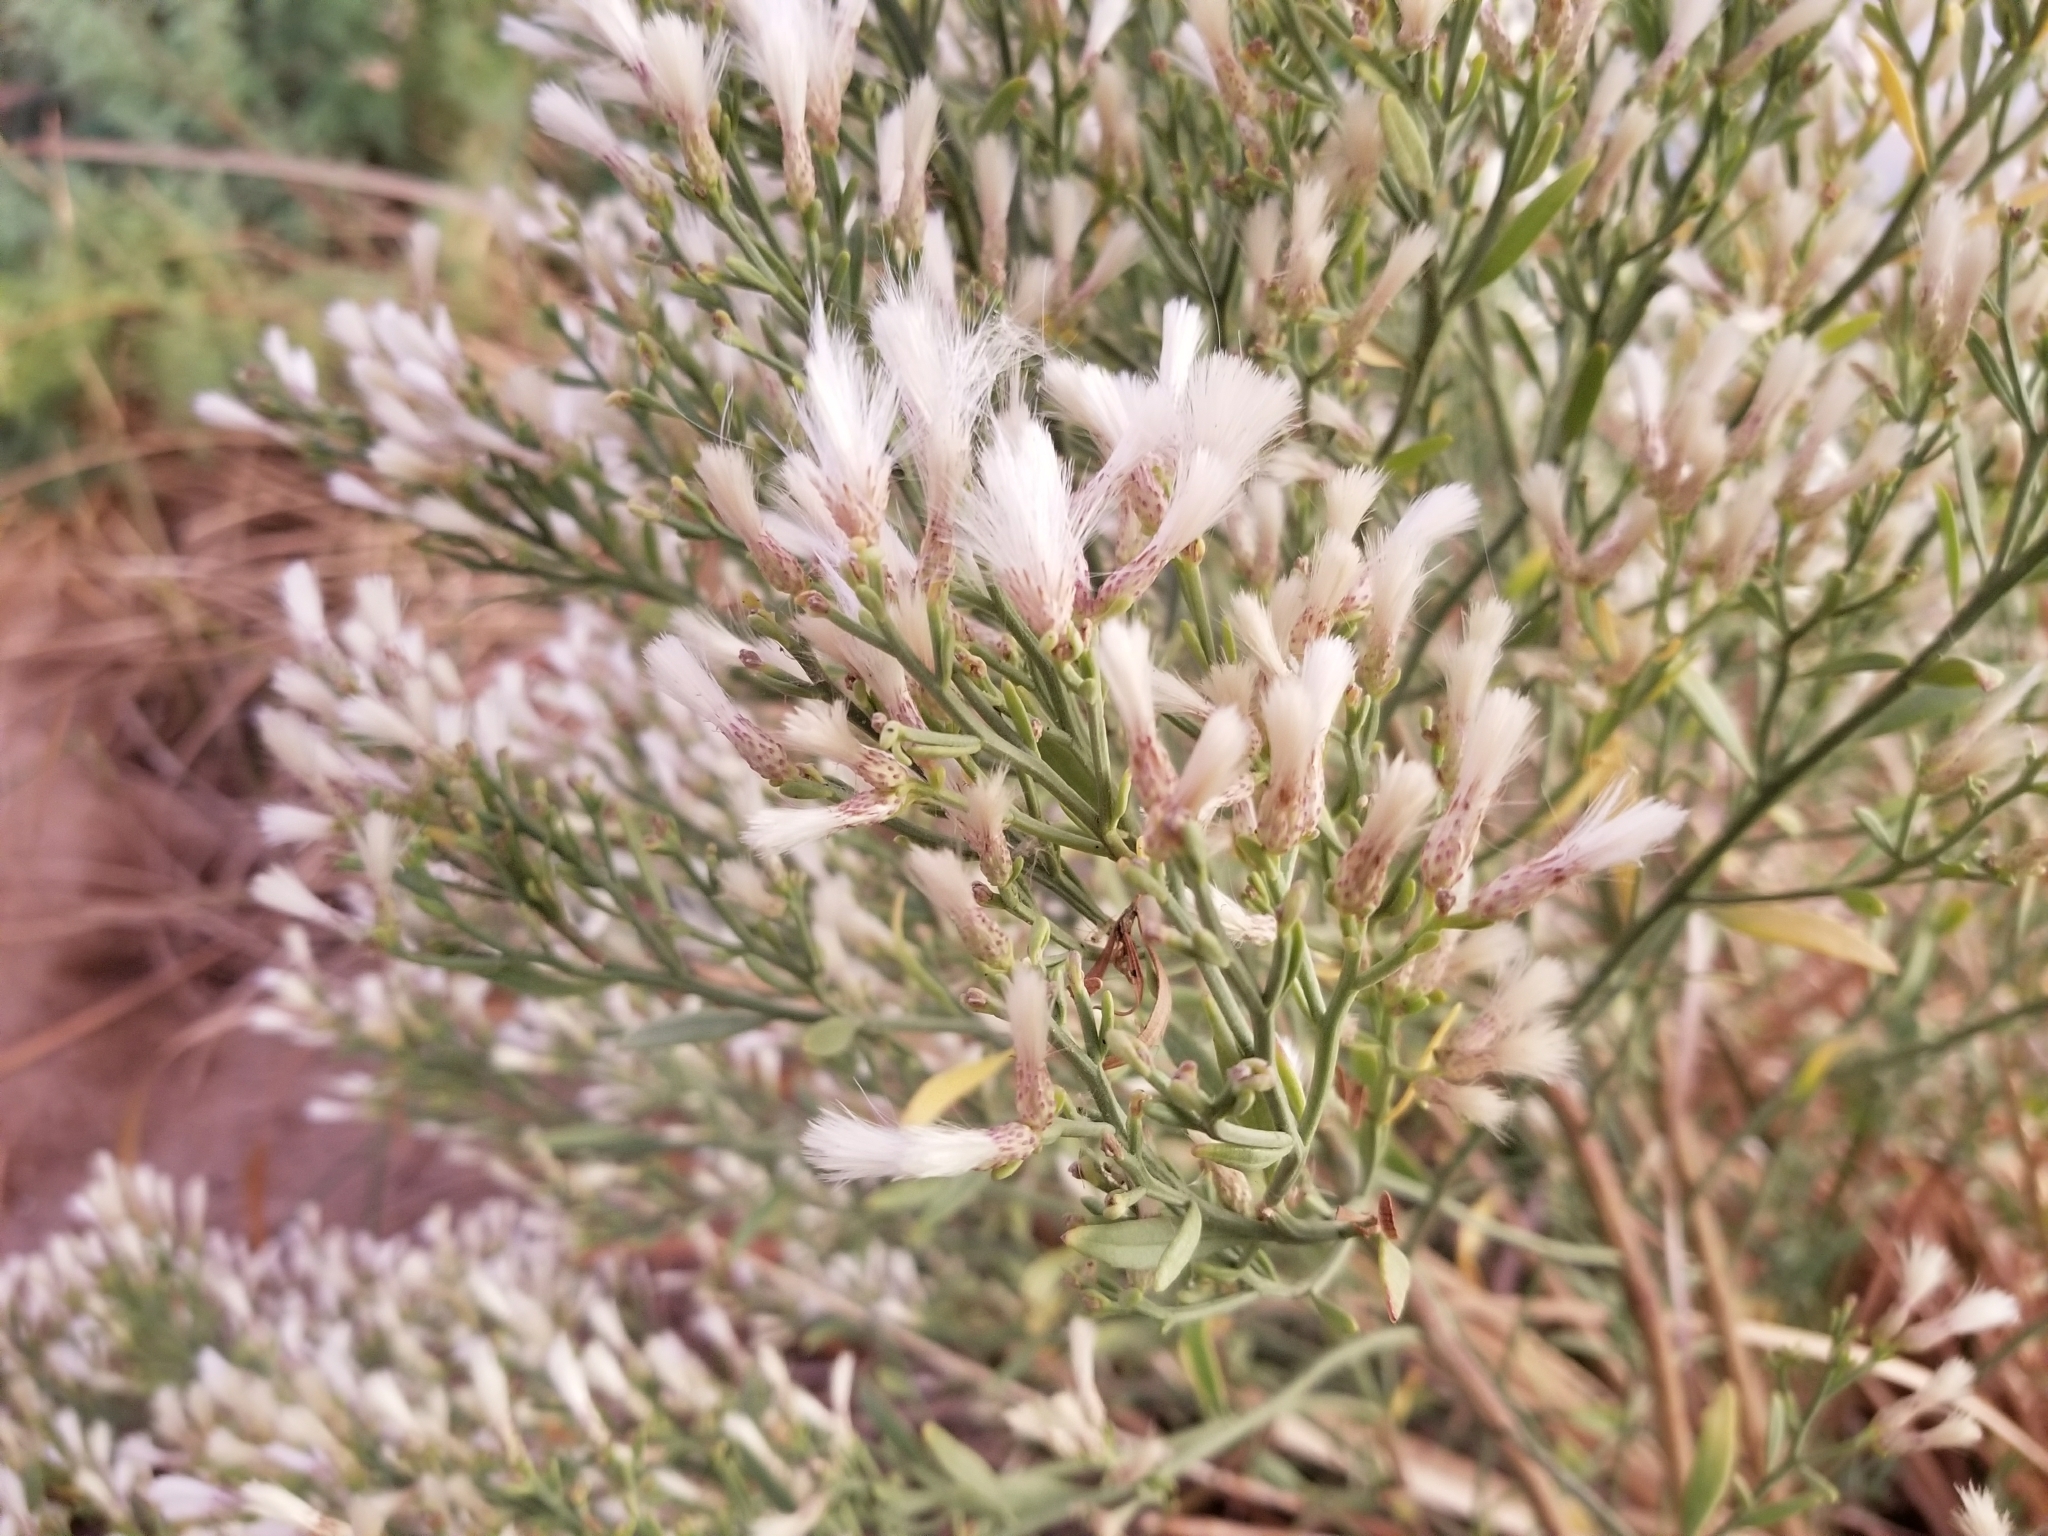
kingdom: Plantae
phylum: Tracheophyta
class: Magnoliopsida
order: Asterales
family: Asteraceae
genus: Baccharis
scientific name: Baccharis salicina
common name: Willow baccharis
